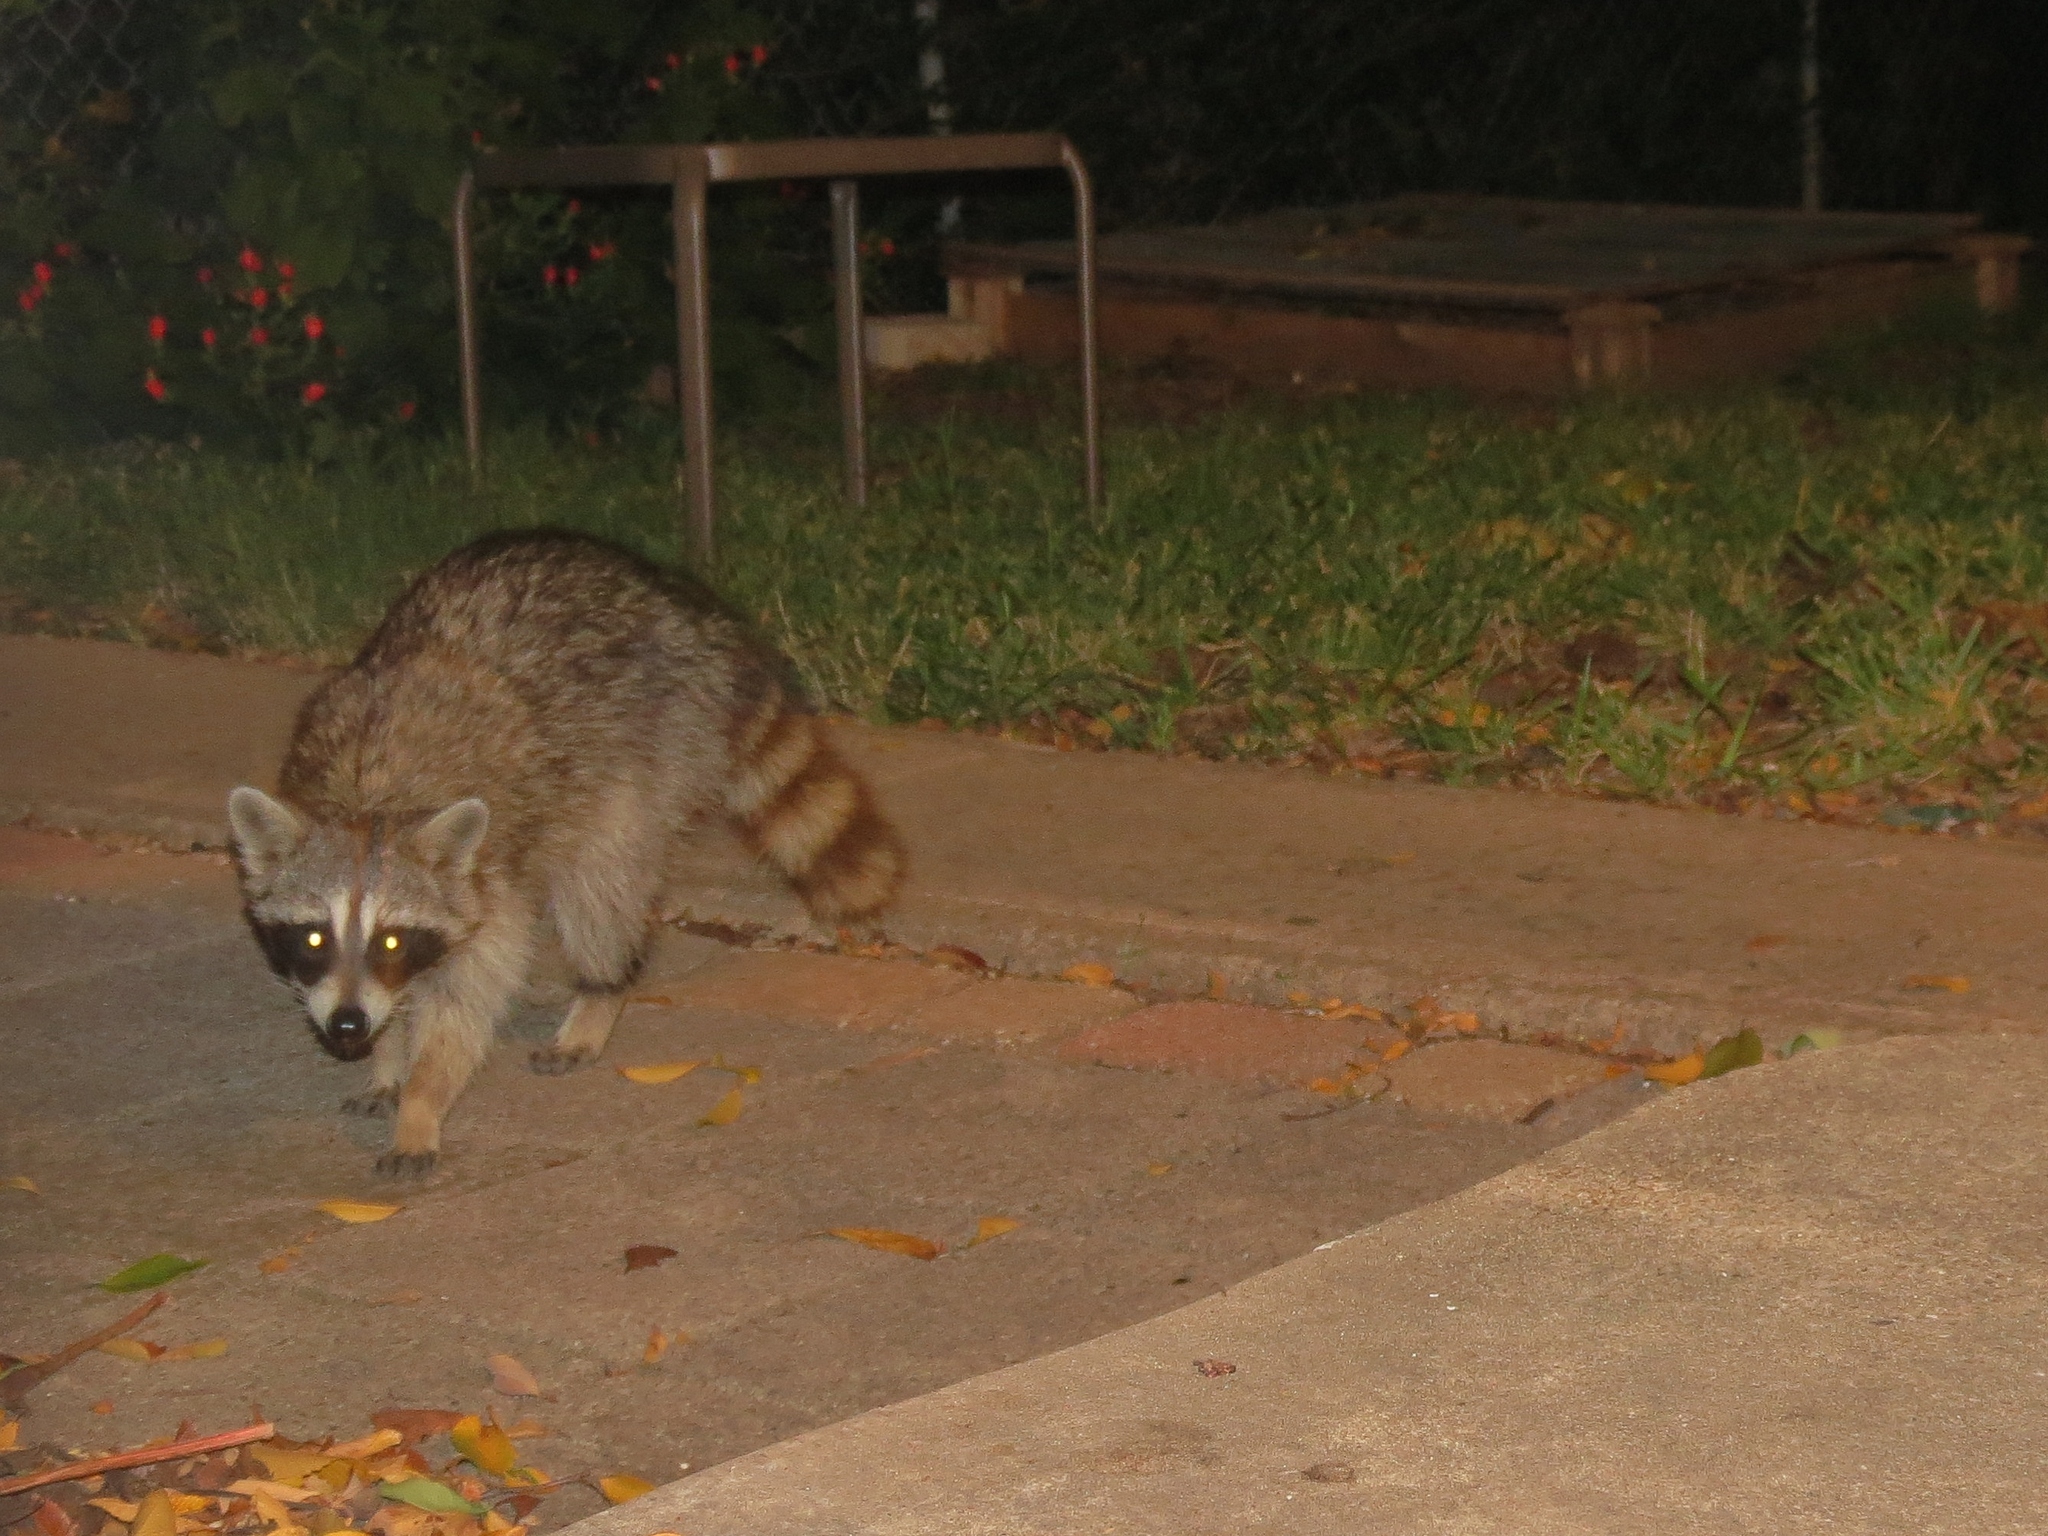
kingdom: Animalia
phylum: Chordata
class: Mammalia
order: Carnivora
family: Procyonidae
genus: Procyon
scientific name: Procyon lotor
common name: Raccoon
